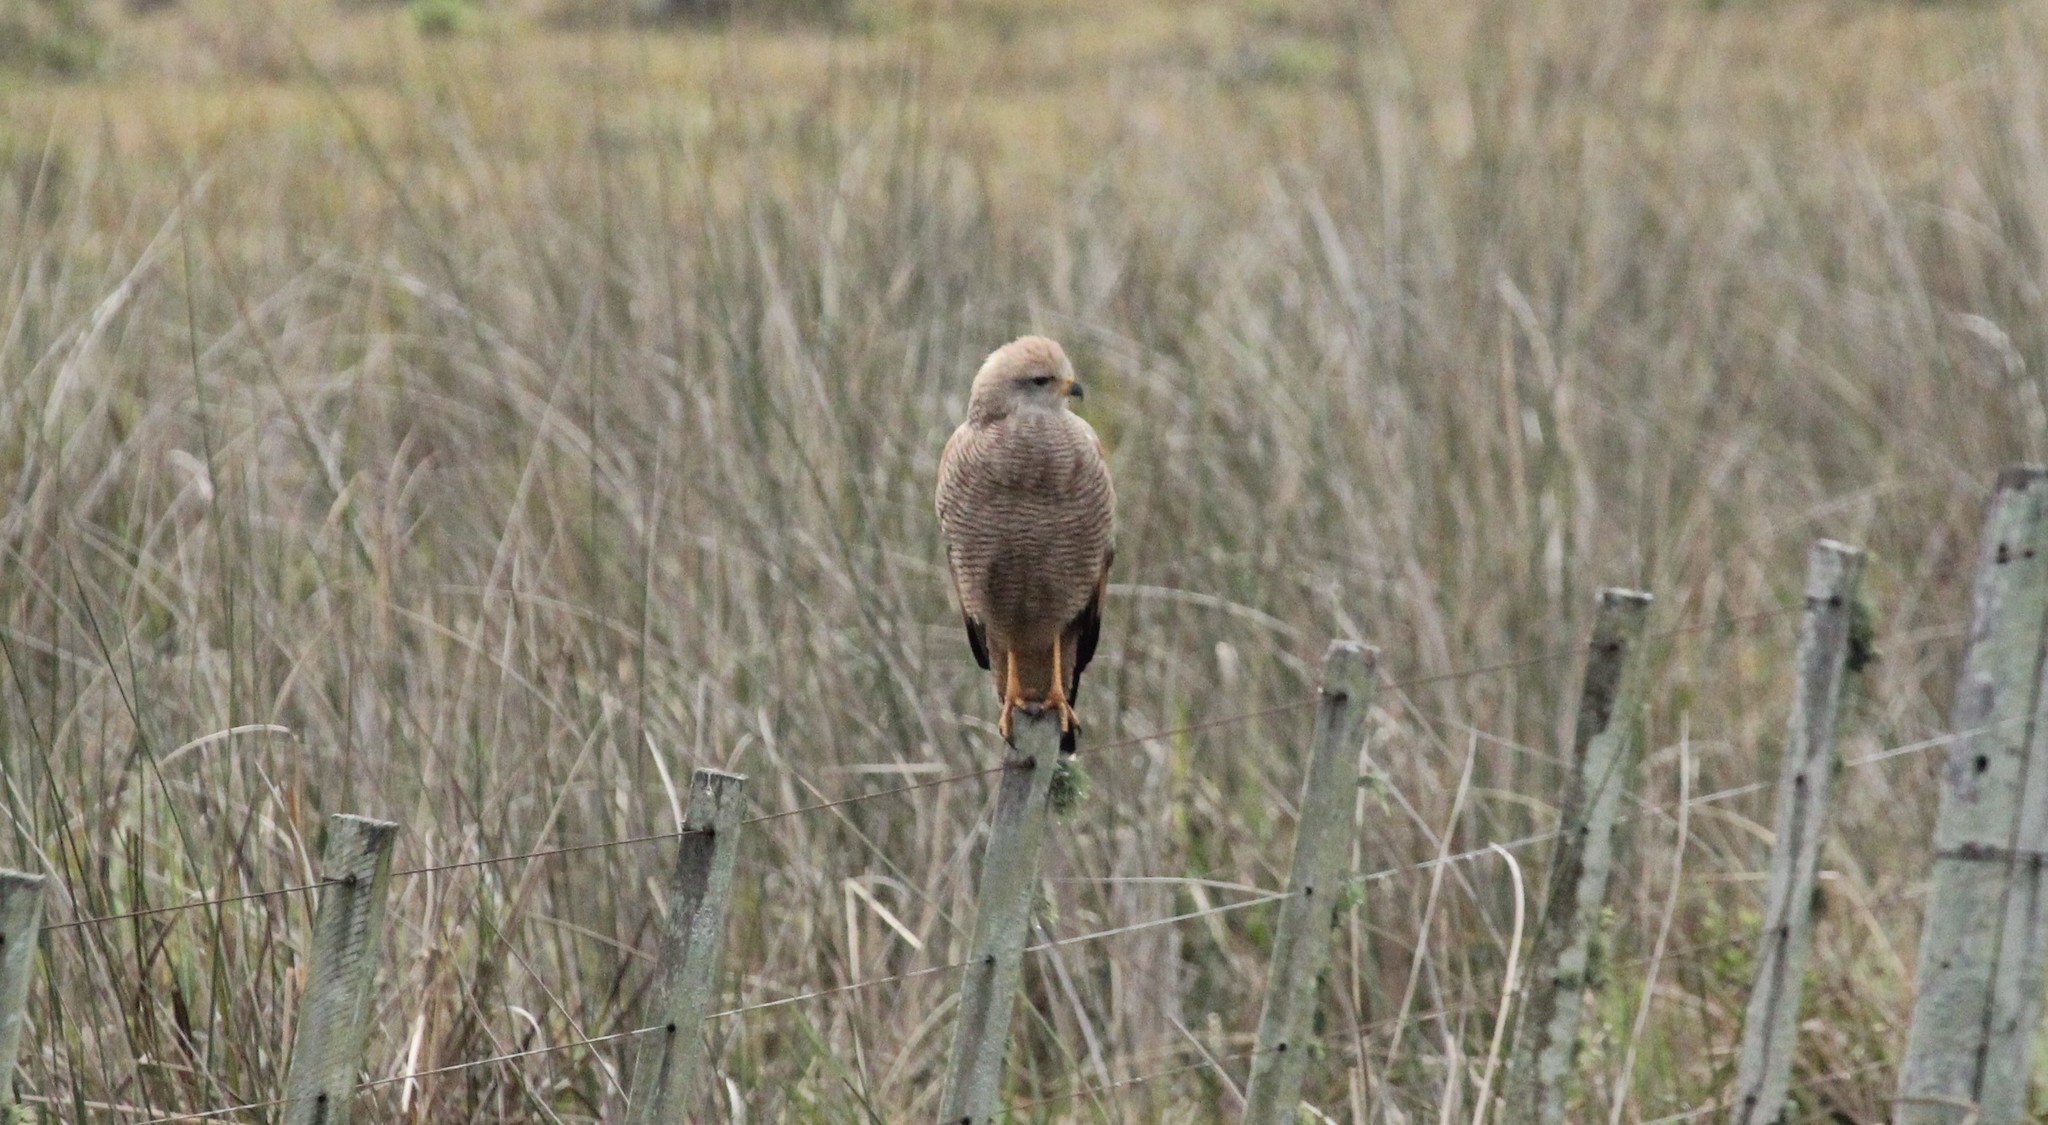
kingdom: Animalia
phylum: Chordata
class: Aves
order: Accipitriformes
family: Accipitridae
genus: Buteogallus
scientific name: Buteogallus meridionalis
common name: Savanna hawk
